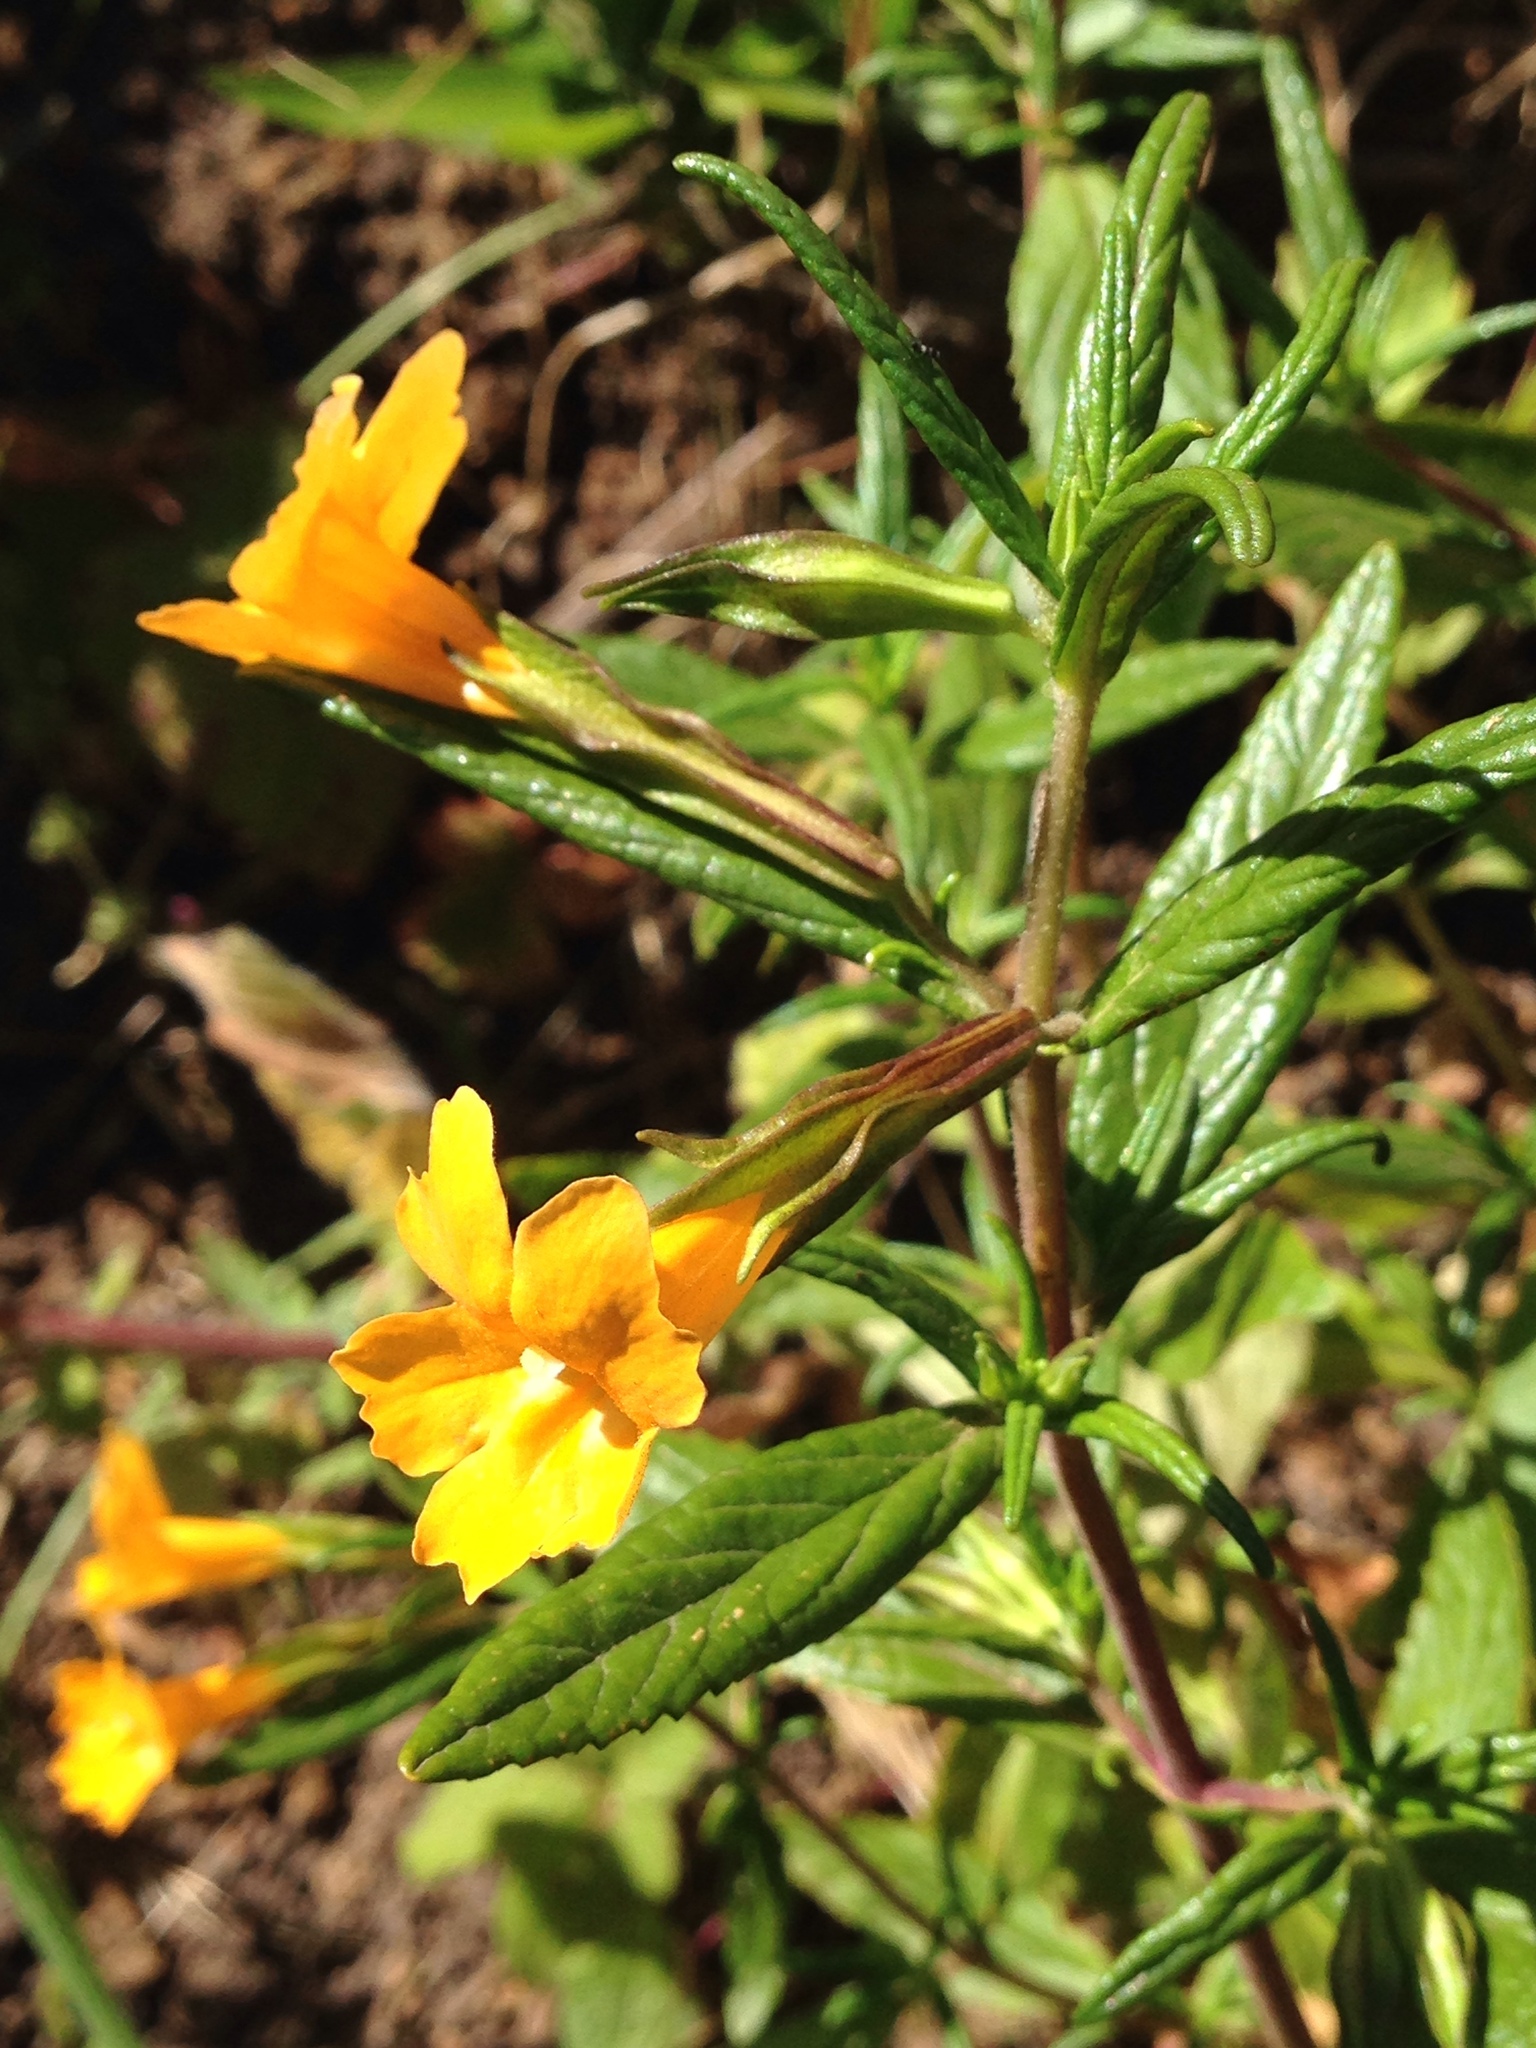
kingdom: Plantae
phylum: Tracheophyta
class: Magnoliopsida
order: Lamiales
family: Phrymaceae
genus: Diplacus
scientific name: Diplacus aurantiacus
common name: Bush monkey-flower
